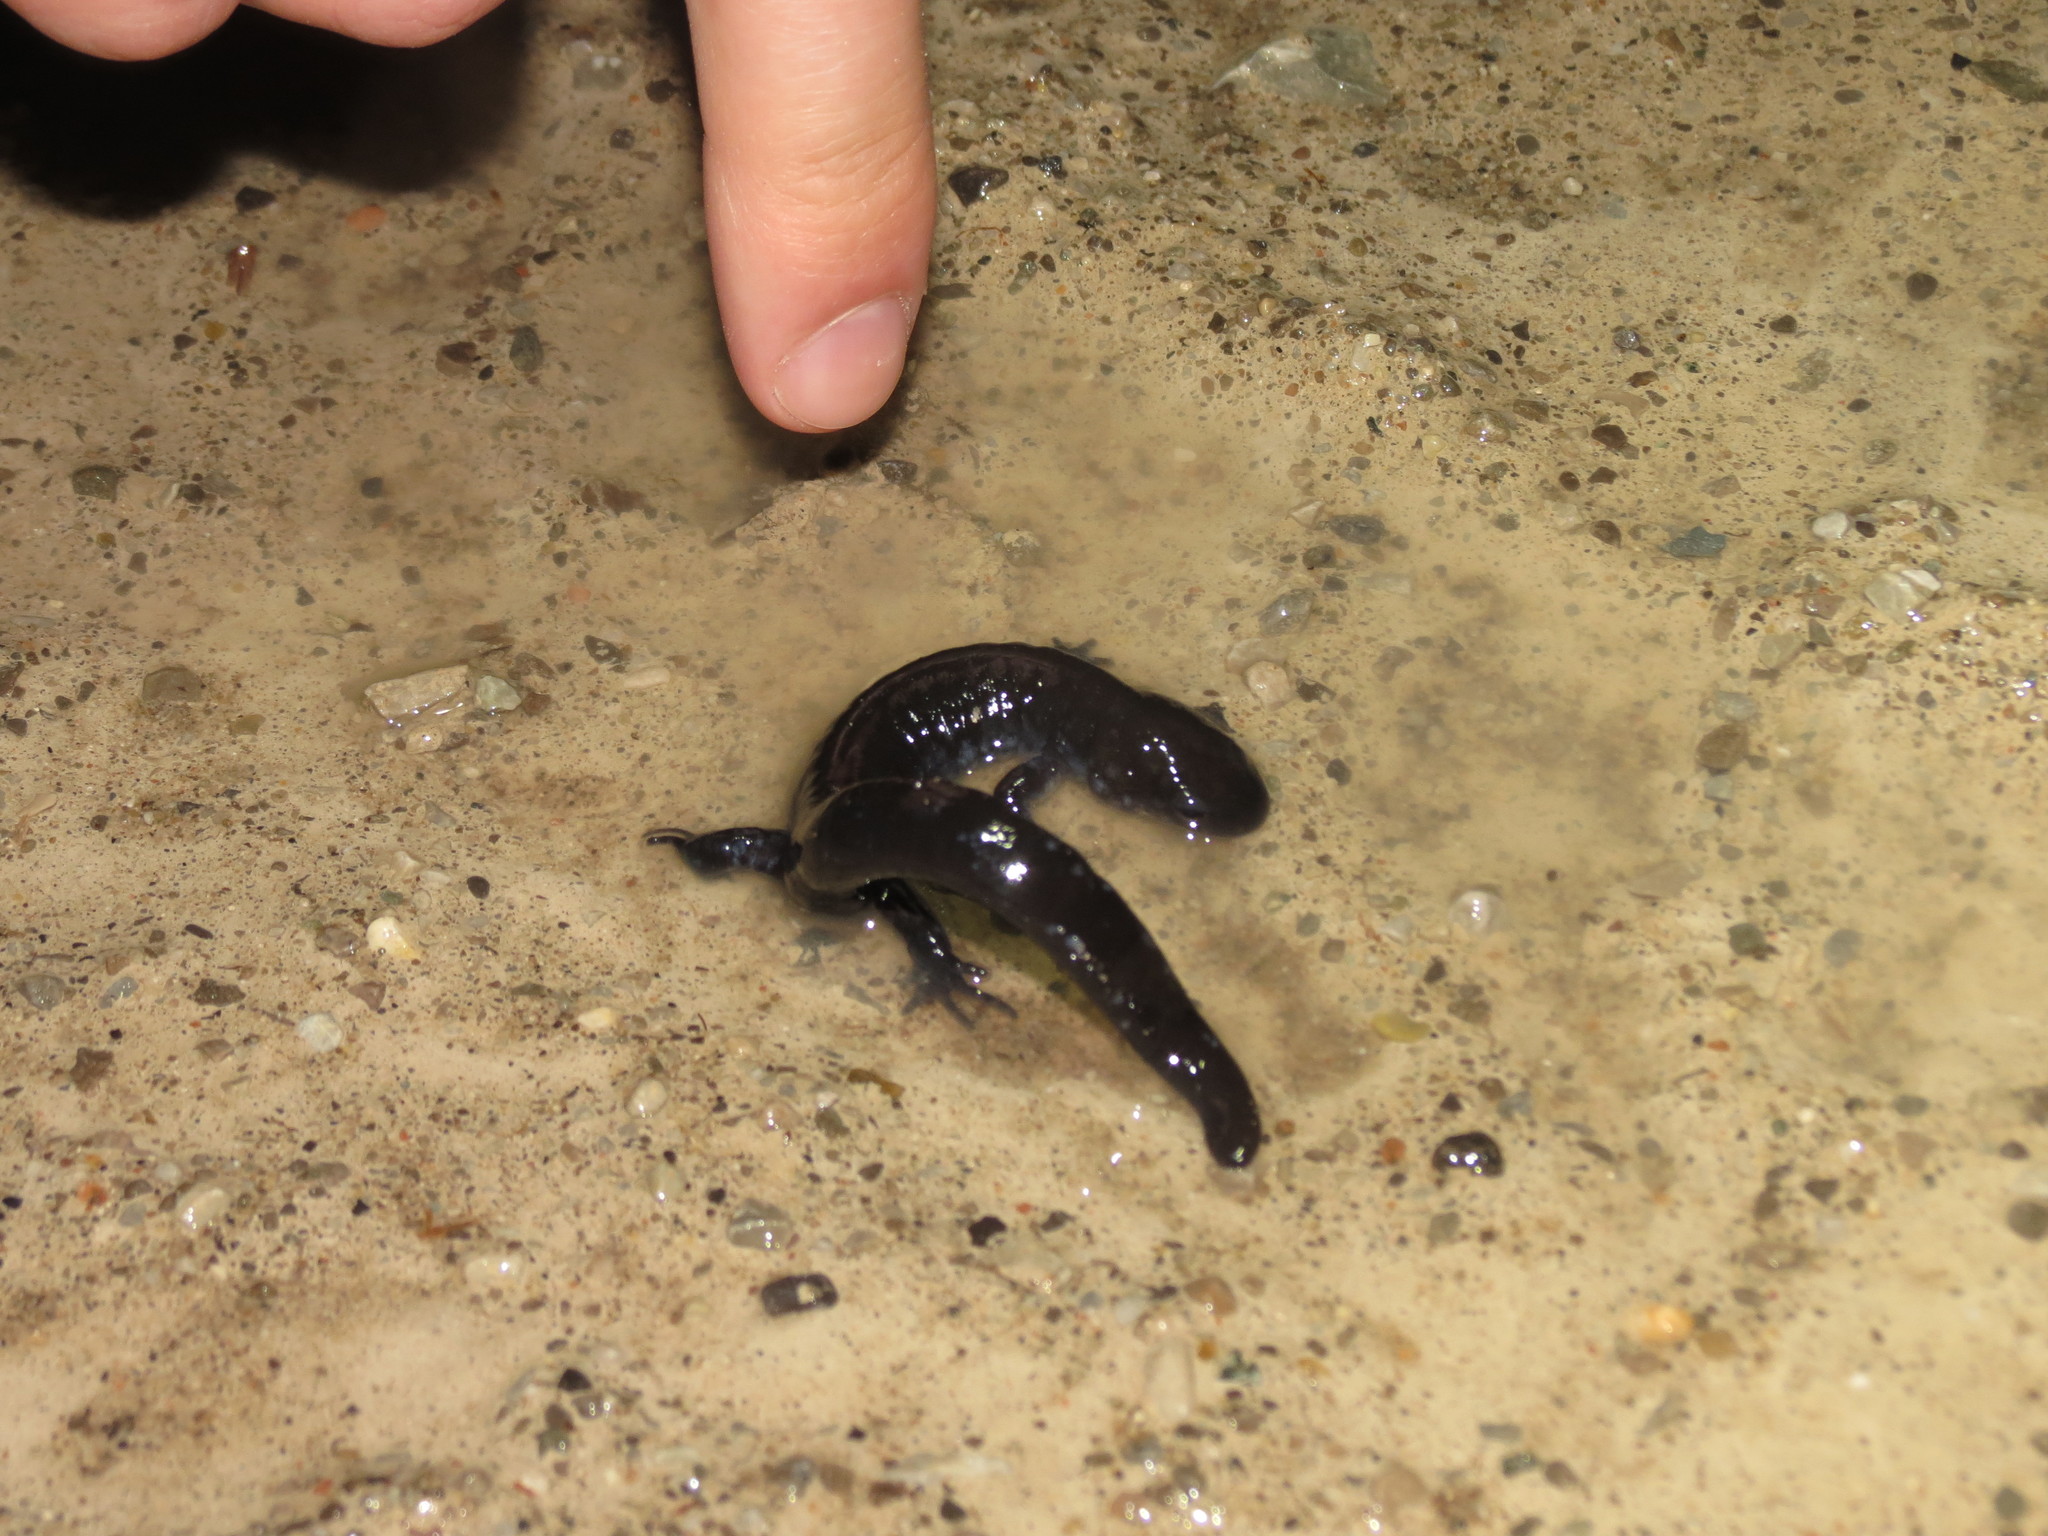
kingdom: Animalia
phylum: Chordata
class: Amphibia
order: Caudata
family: Ambystomatidae
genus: Ambystoma
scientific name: Ambystoma unisexual
